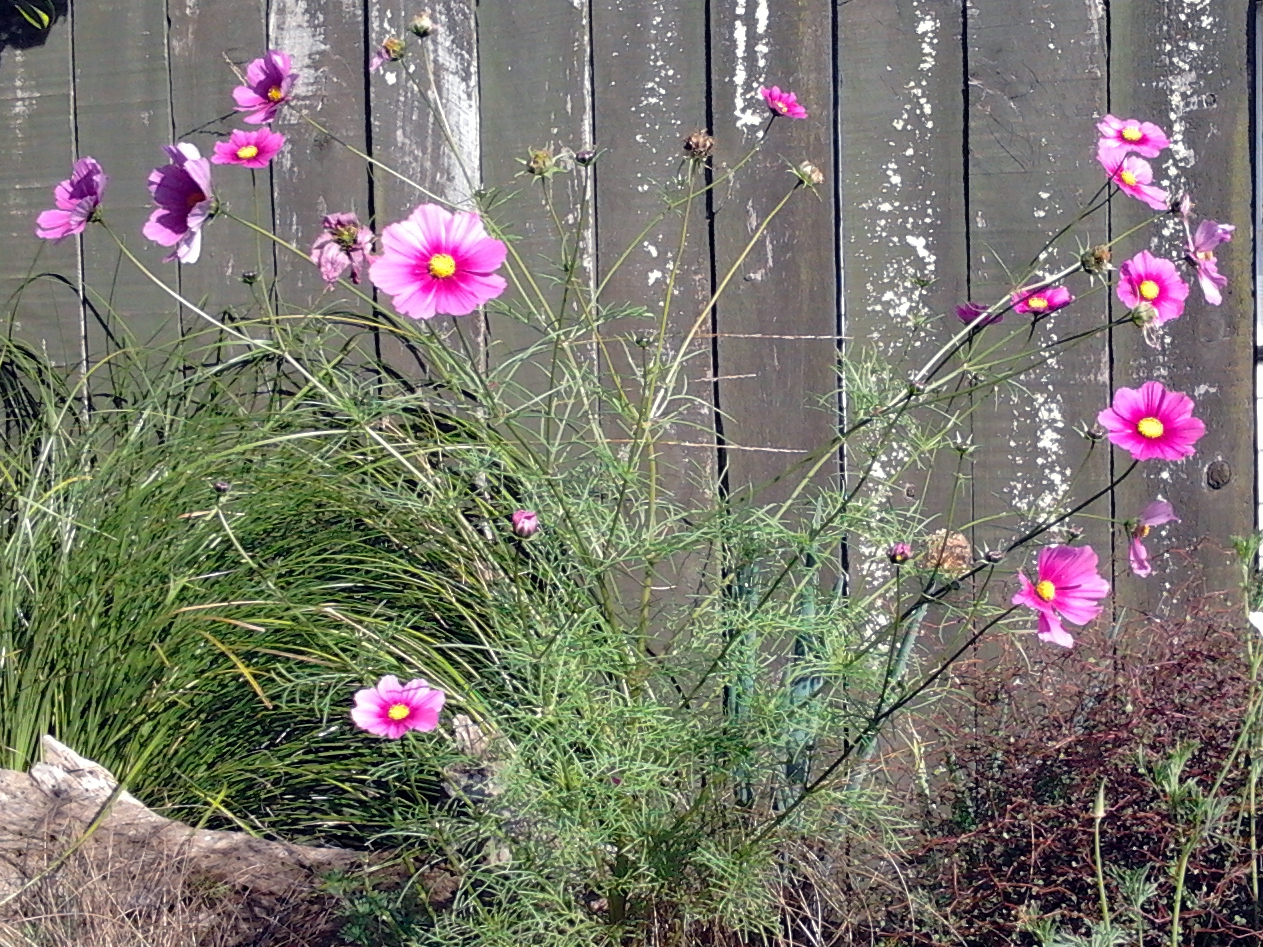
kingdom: Plantae
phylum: Tracheophyta
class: Magnoliopsida
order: Asterales
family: Asteraceae
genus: Cosmos
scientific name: Cosmos bipinnatus
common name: Garden cosmos
